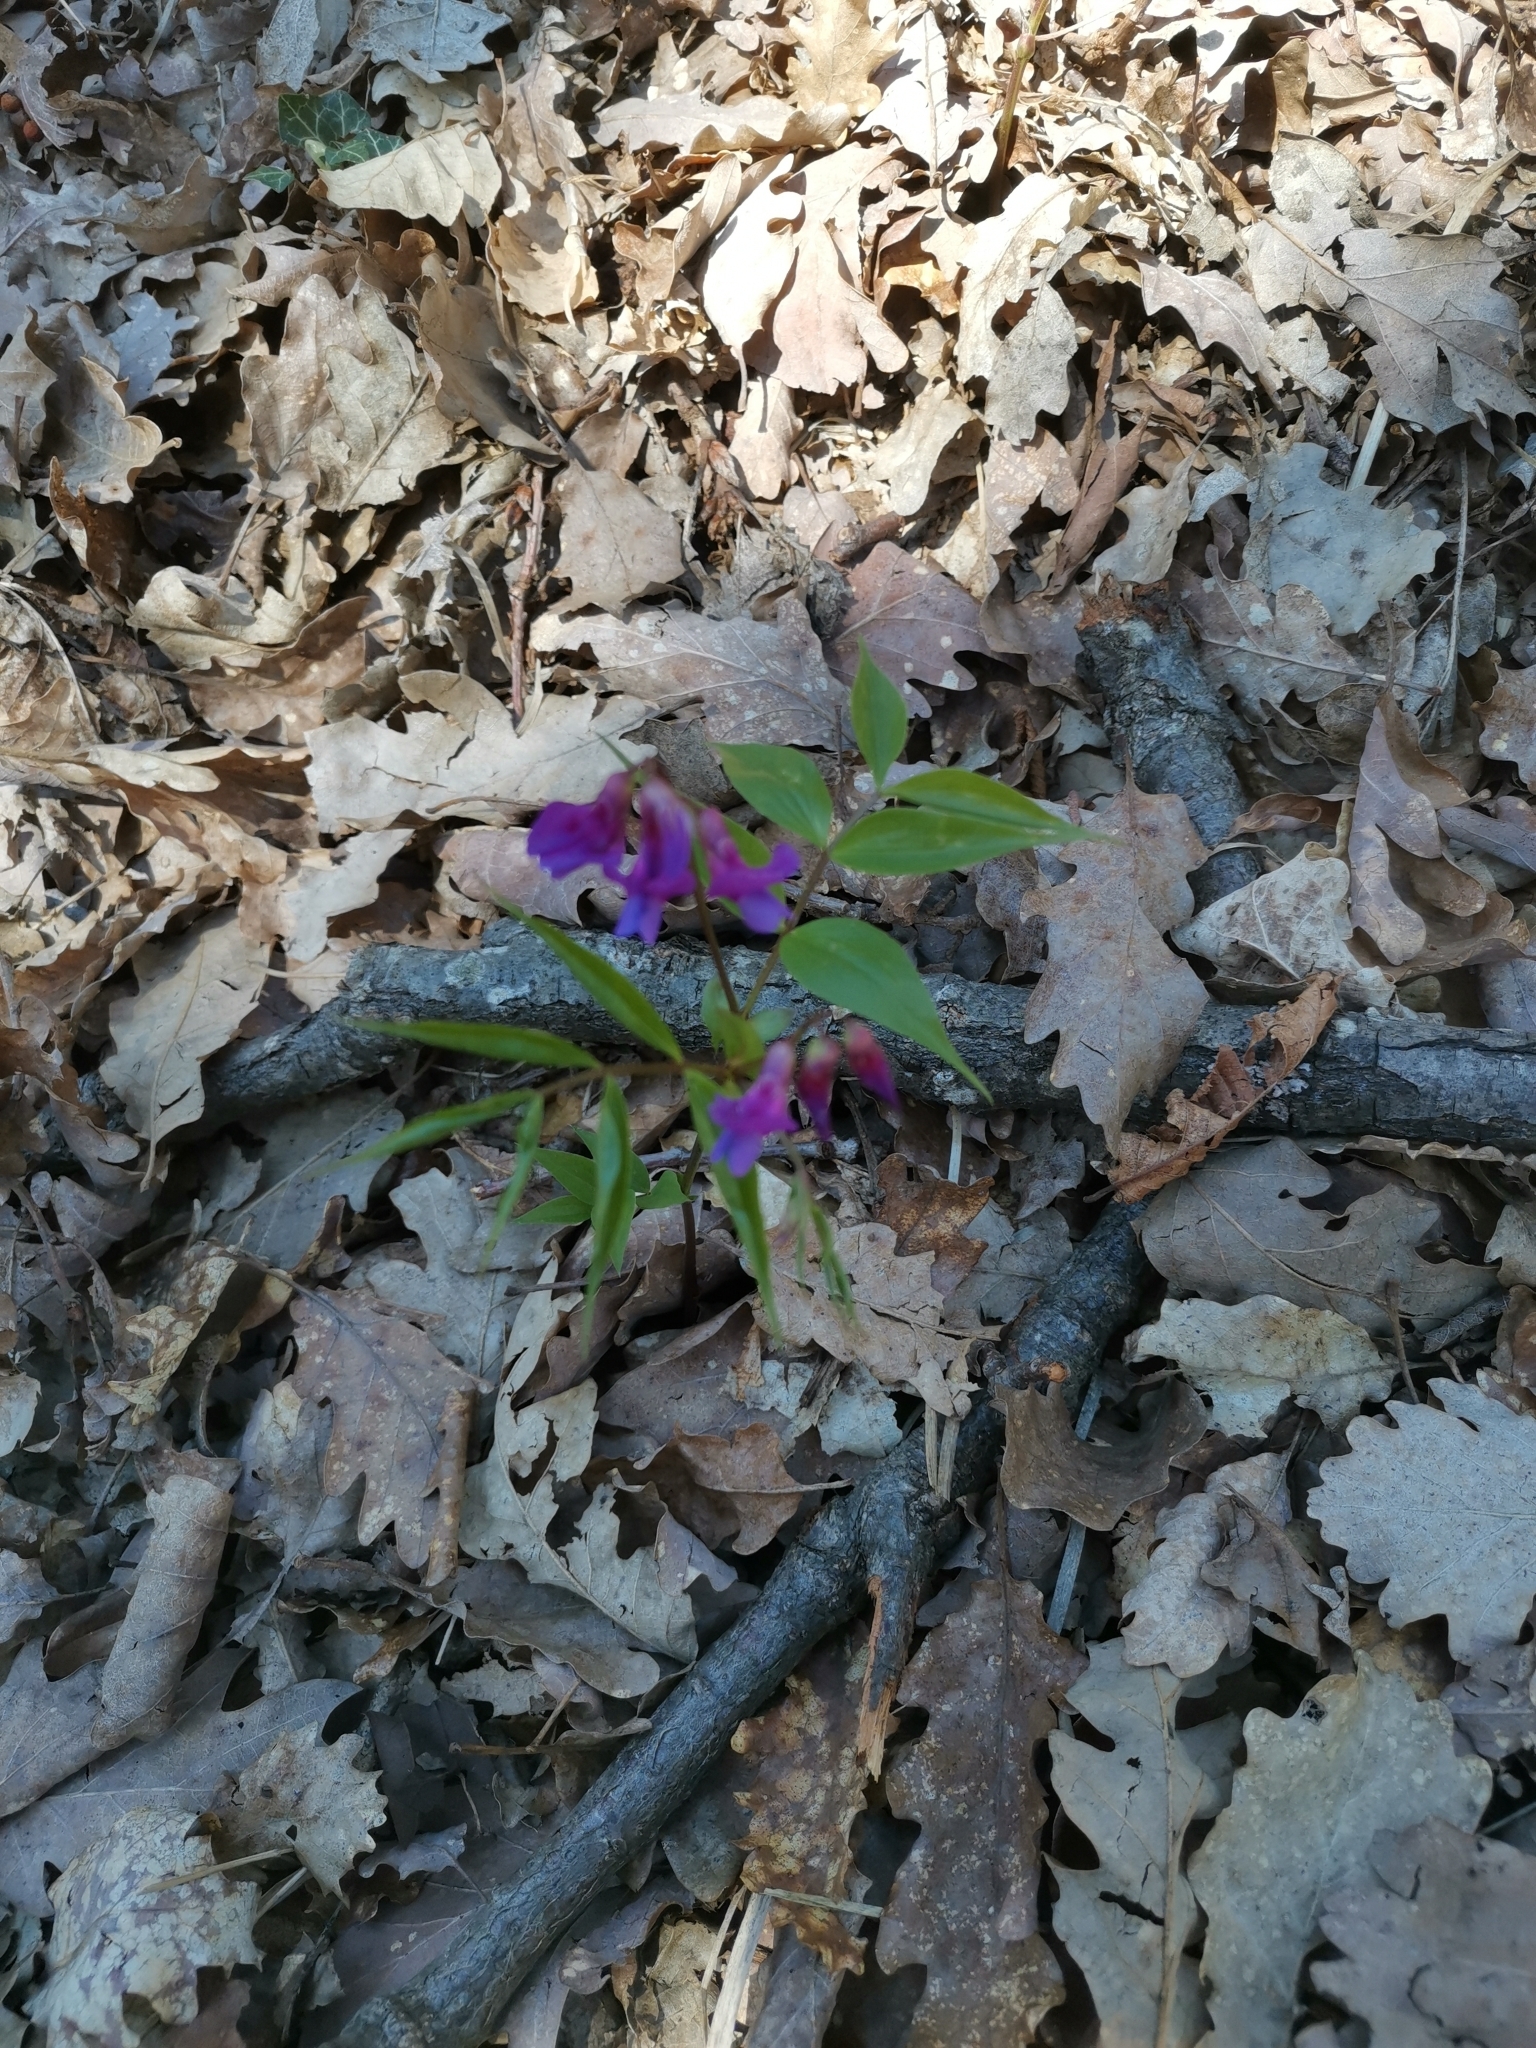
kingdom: Plantae
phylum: Tracheophyta
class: Magnoliopsida
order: Fabales
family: Fabaceae
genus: Lathyrus
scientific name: Lathyrus vernus
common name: Spring pea
